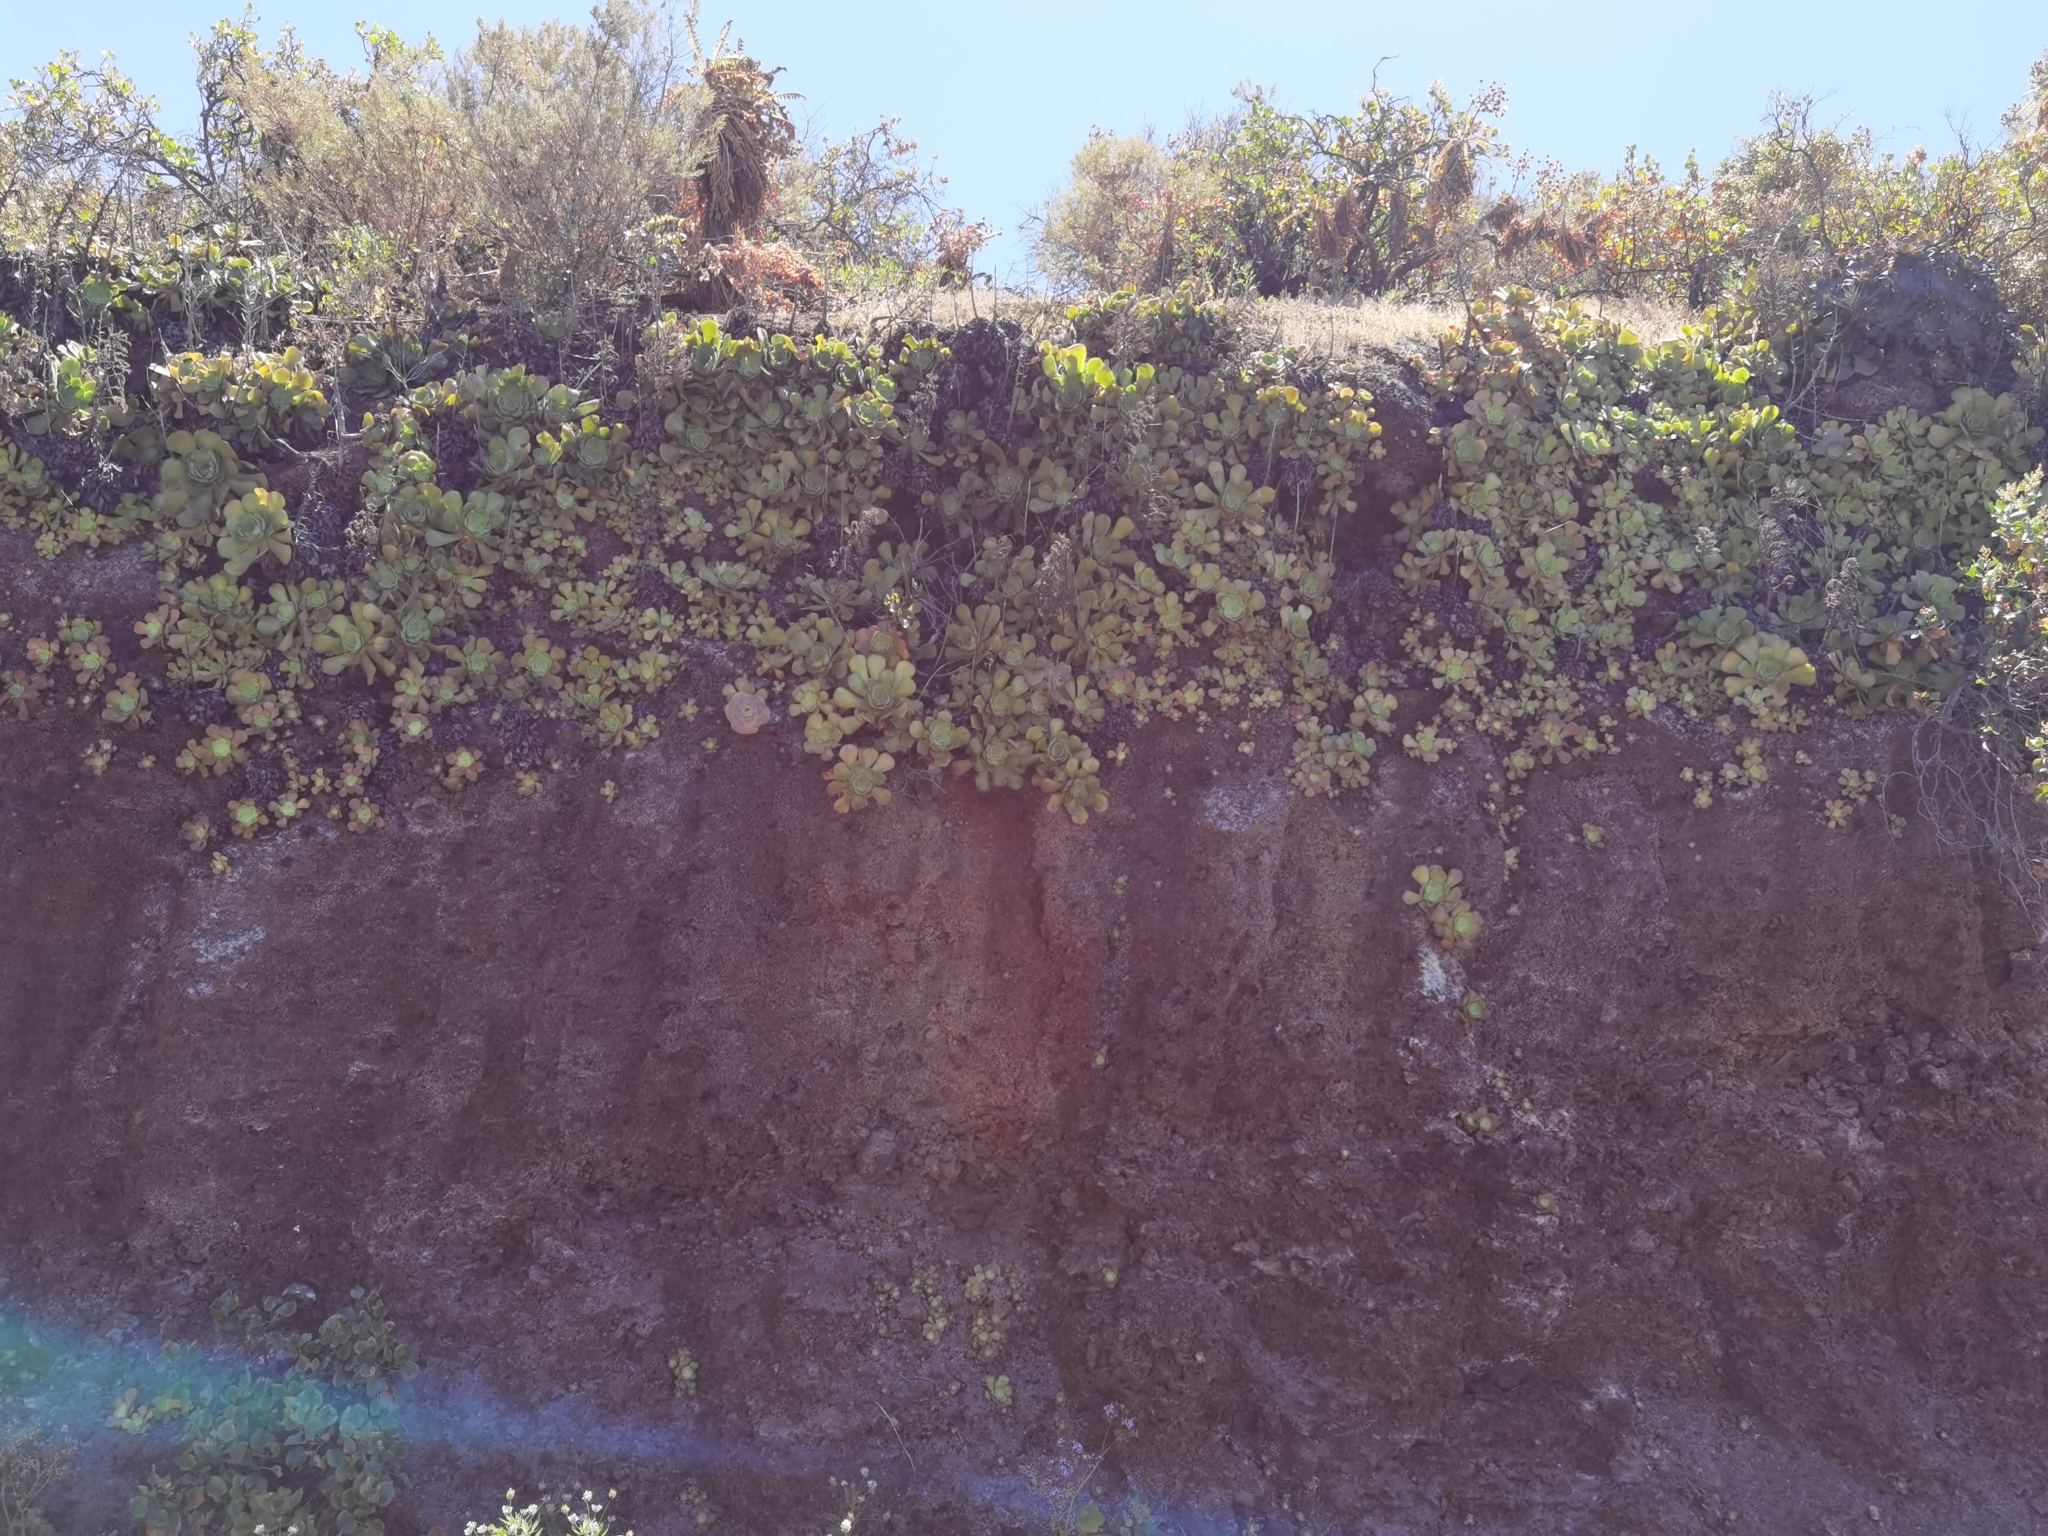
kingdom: Plantae
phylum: Tracheophyta
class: Magnoliopsida
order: Saxifragales
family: Crassulaceae
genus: Aeonium
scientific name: Aeonium canariense
